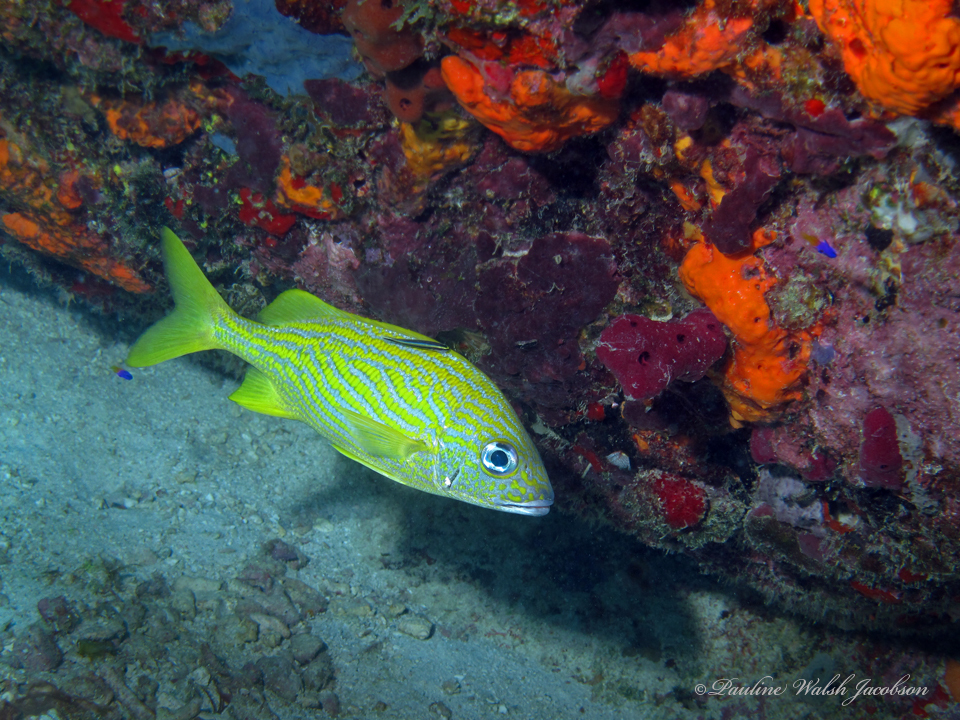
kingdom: Animalia
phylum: Chordata
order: Perciformes
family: Haemulidae
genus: Haemulon
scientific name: Haemulon flavolineatum
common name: French grunt
